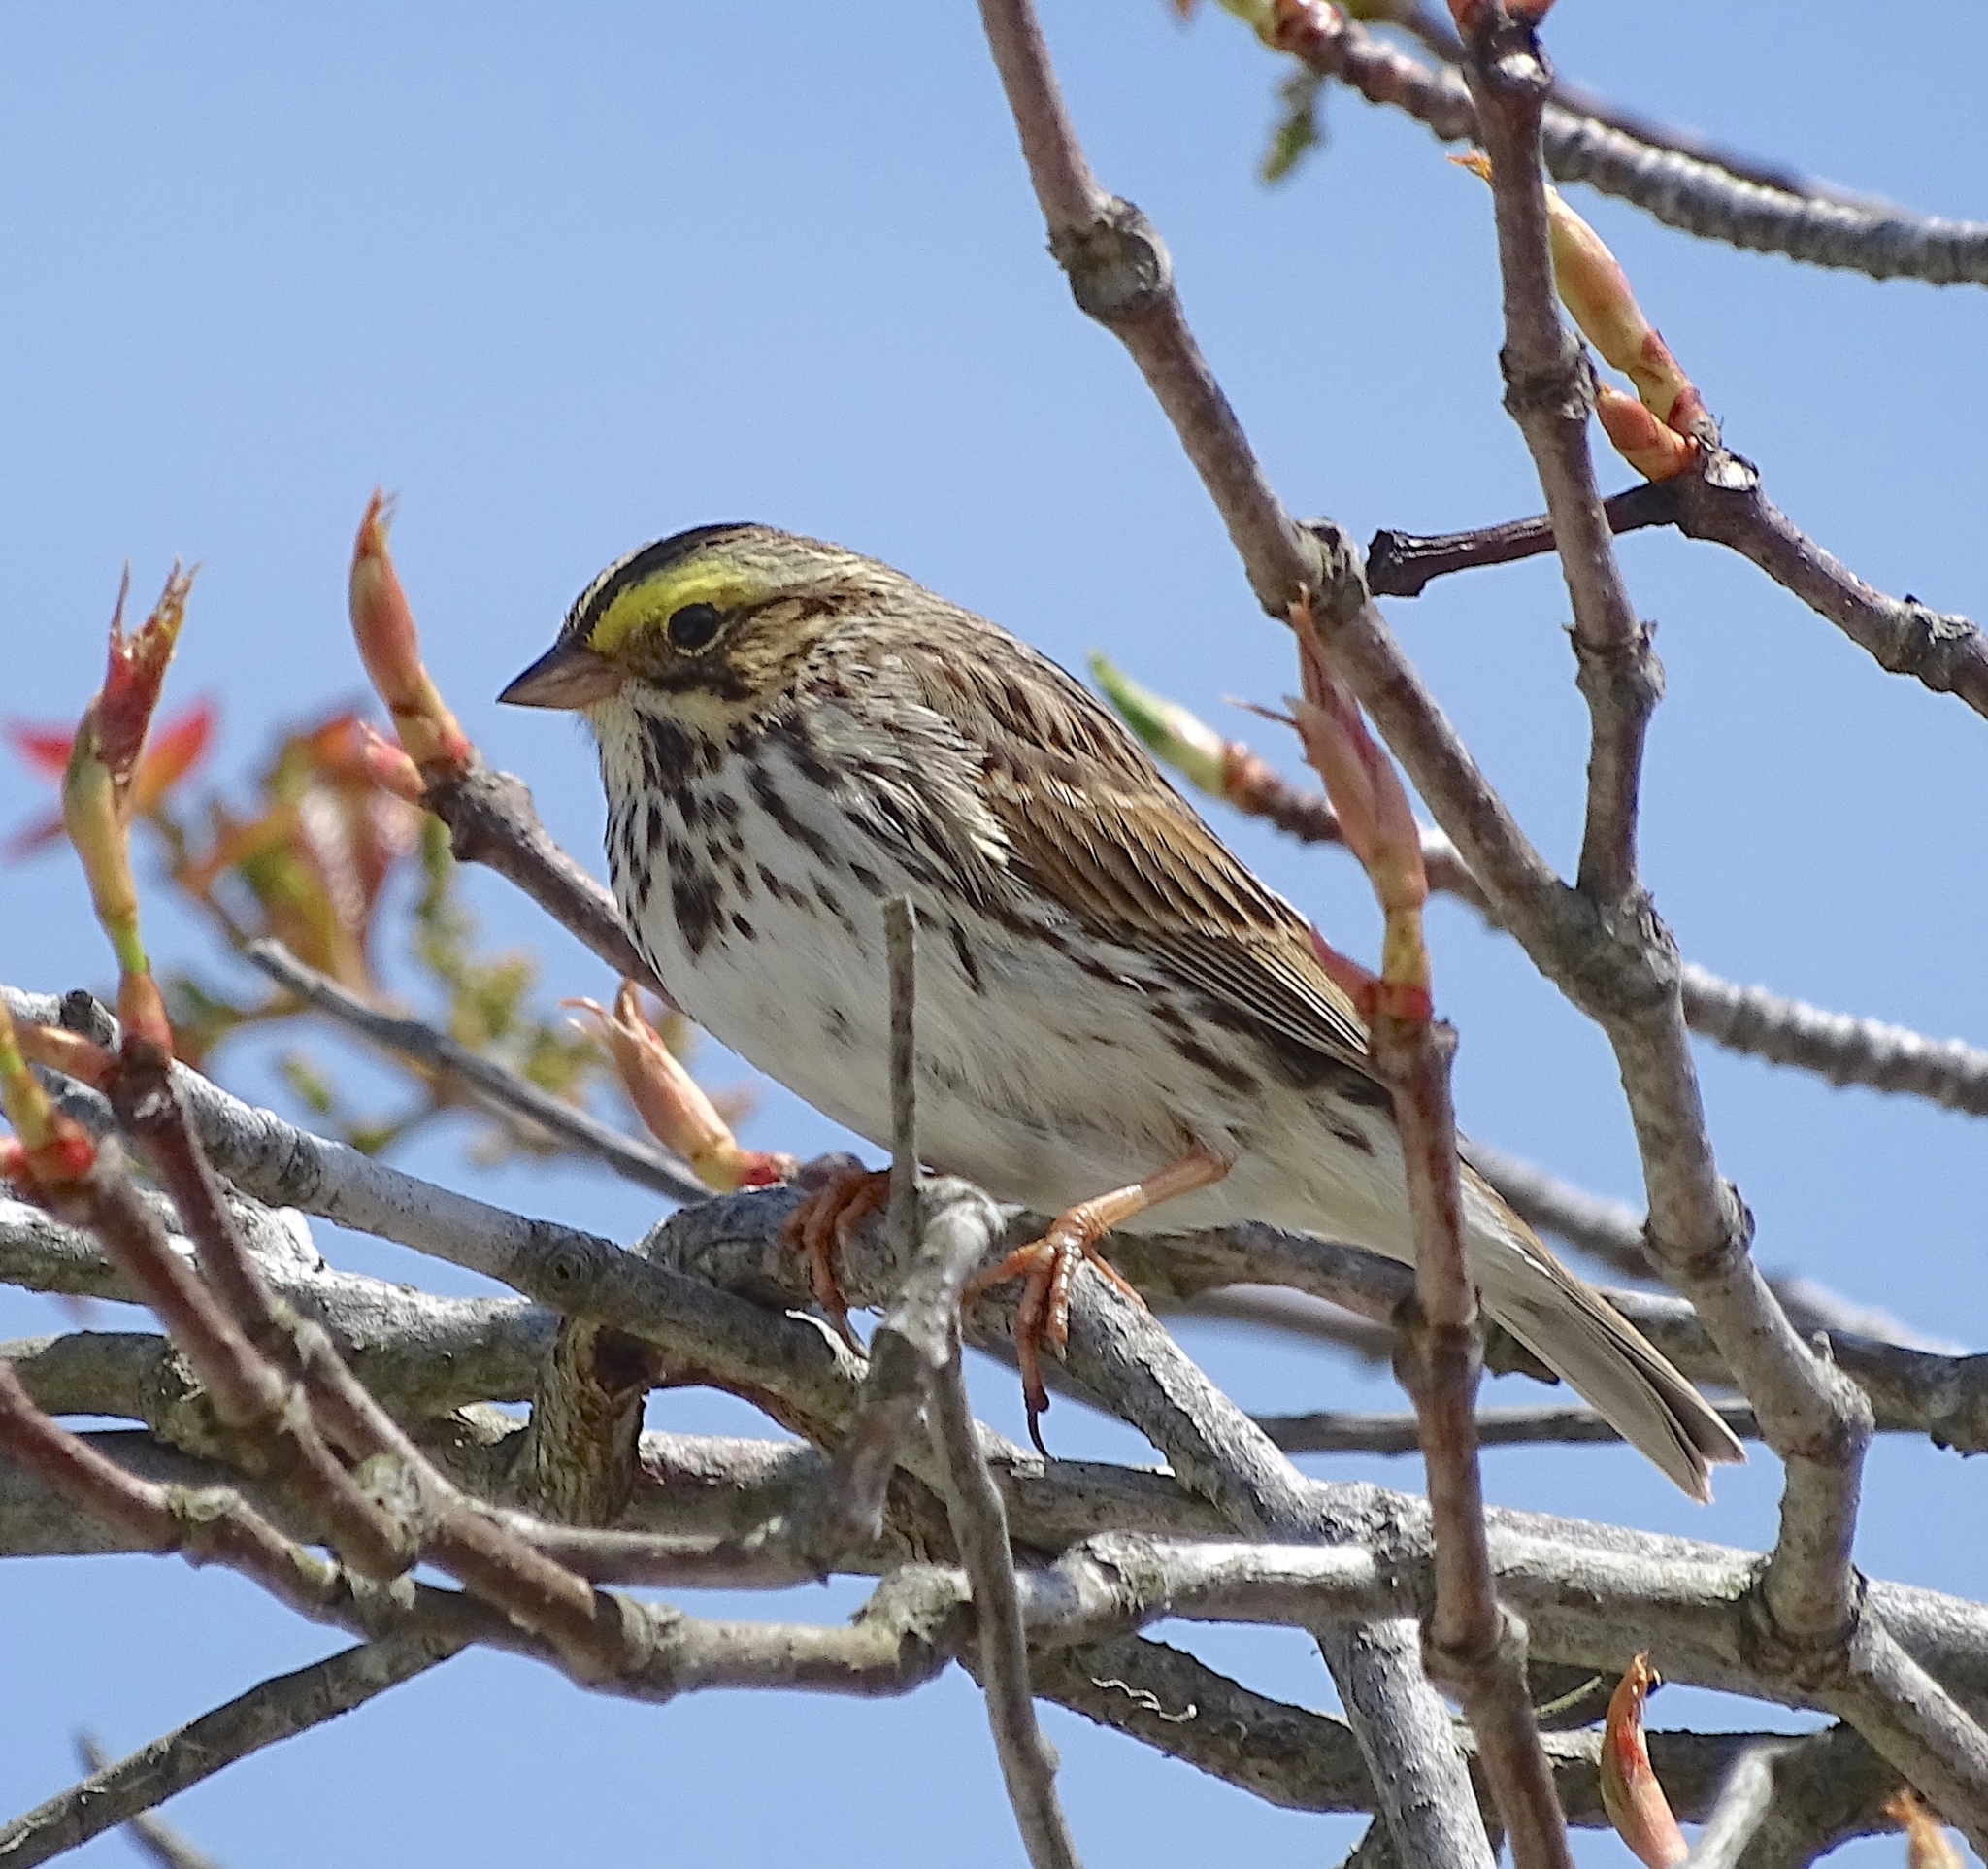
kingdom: Animalia
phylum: Chordata
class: Aves
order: Passeriformes
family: Passerellidae
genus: Passerculus
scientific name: Passerculus sandwichensis
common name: Savannah sparrow
